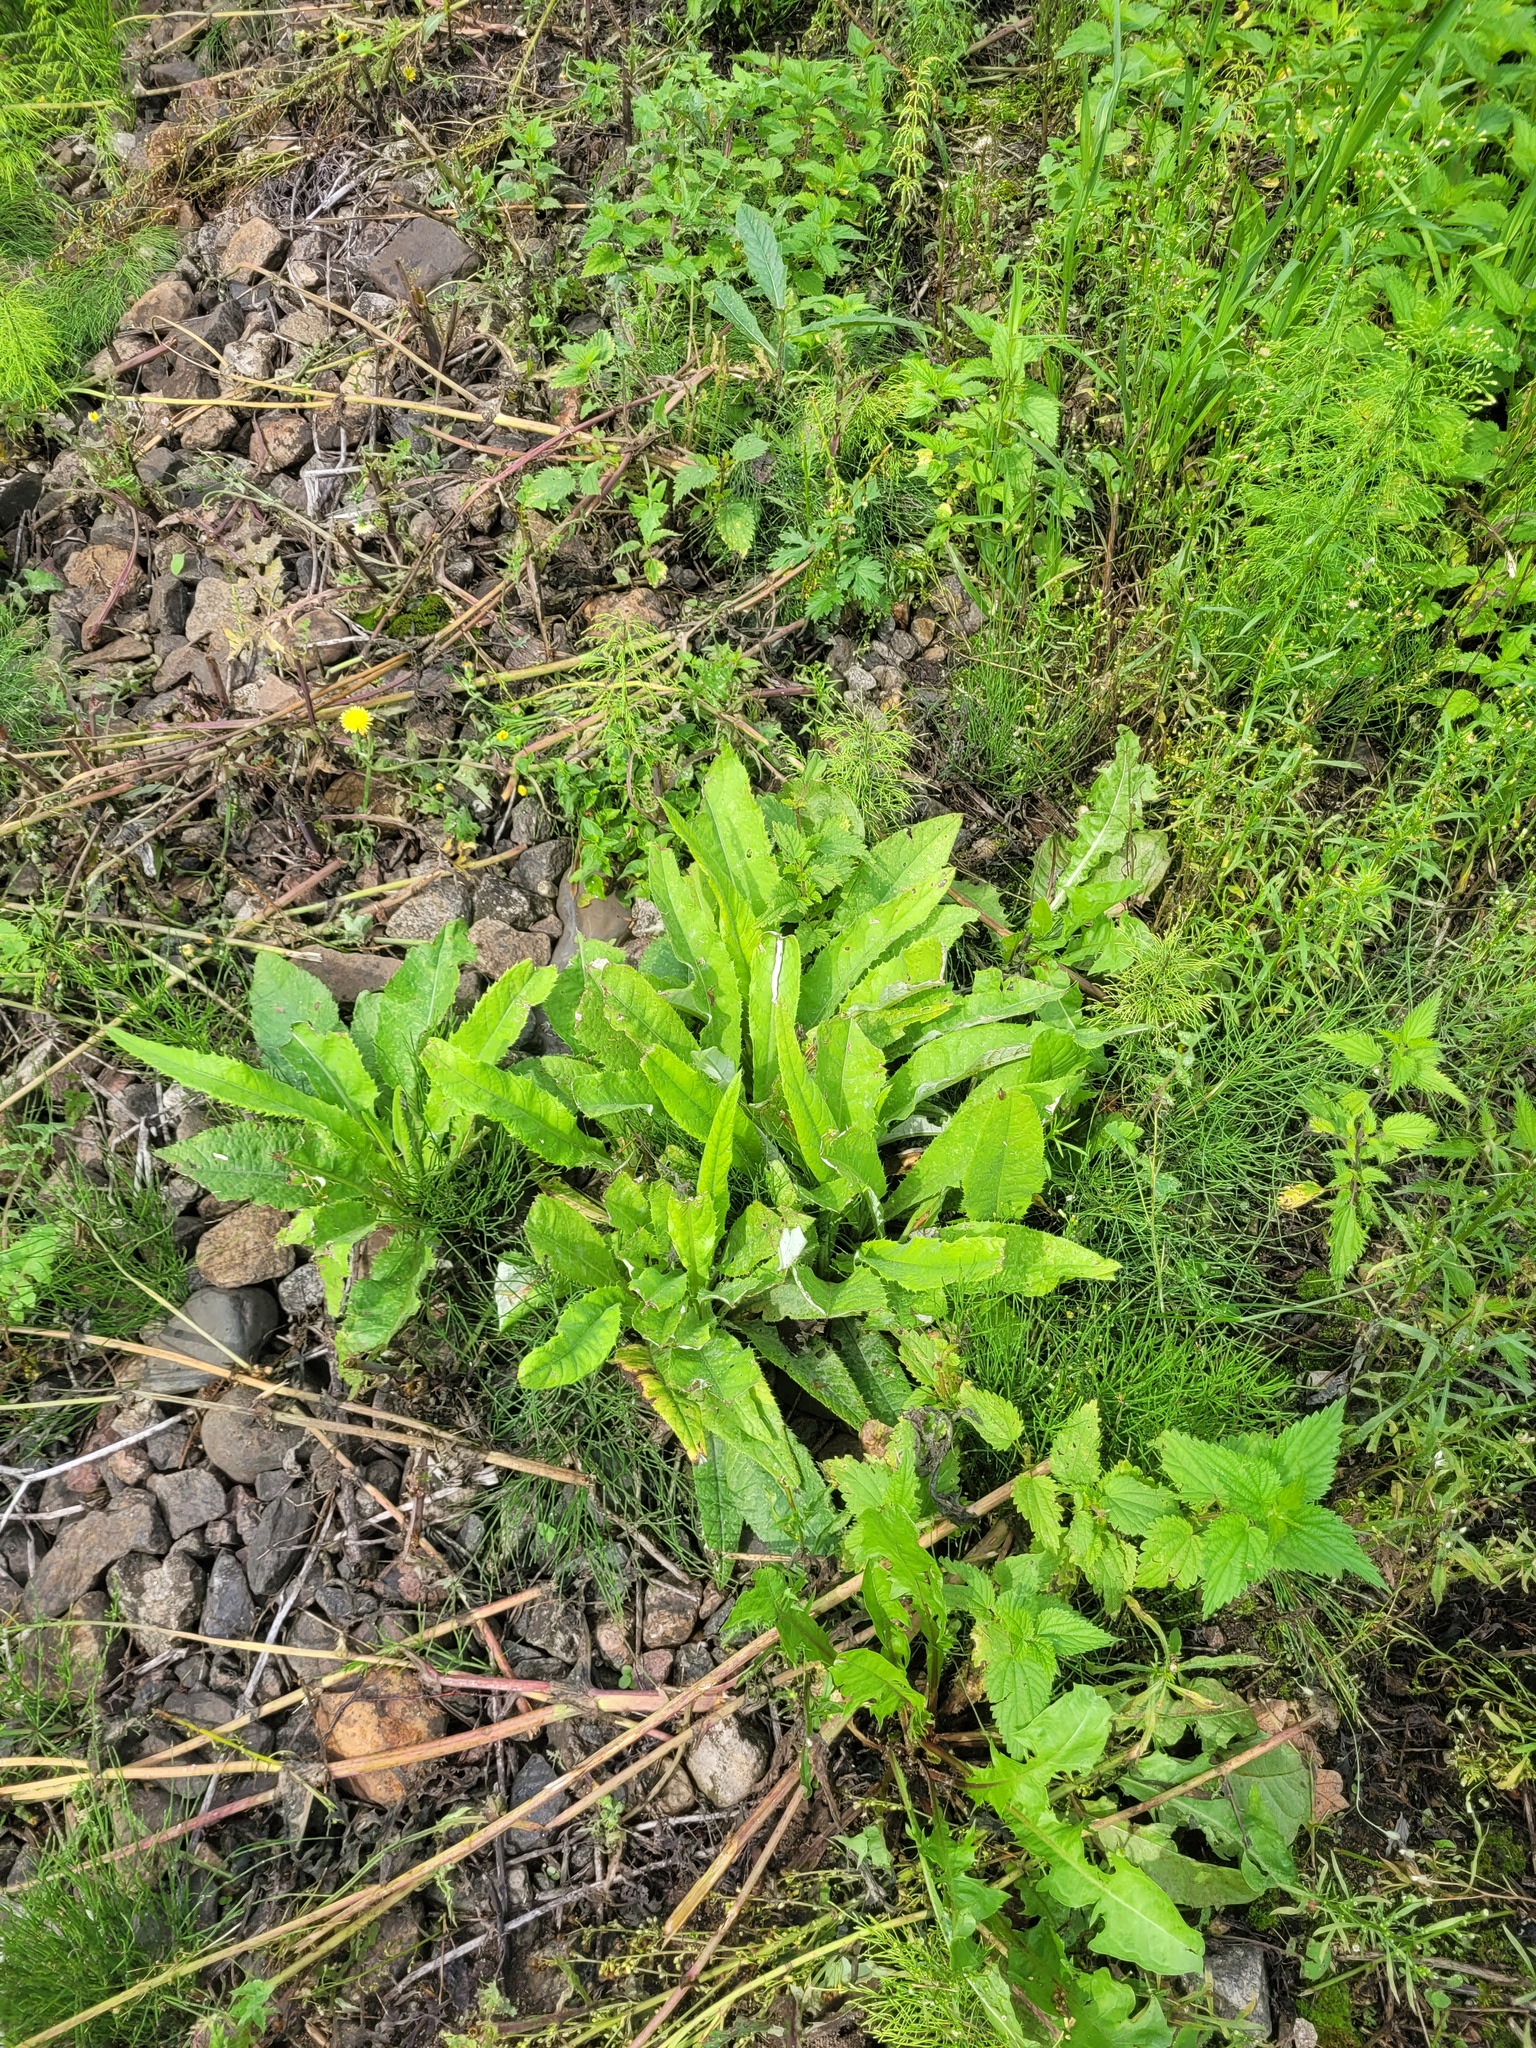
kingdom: Plantae
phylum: Tracheophyta
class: Magnoliopsida
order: Asterales
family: Asteraceae
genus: Cirsium
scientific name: Cirsium heterophyllum
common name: Melancholy thistle
